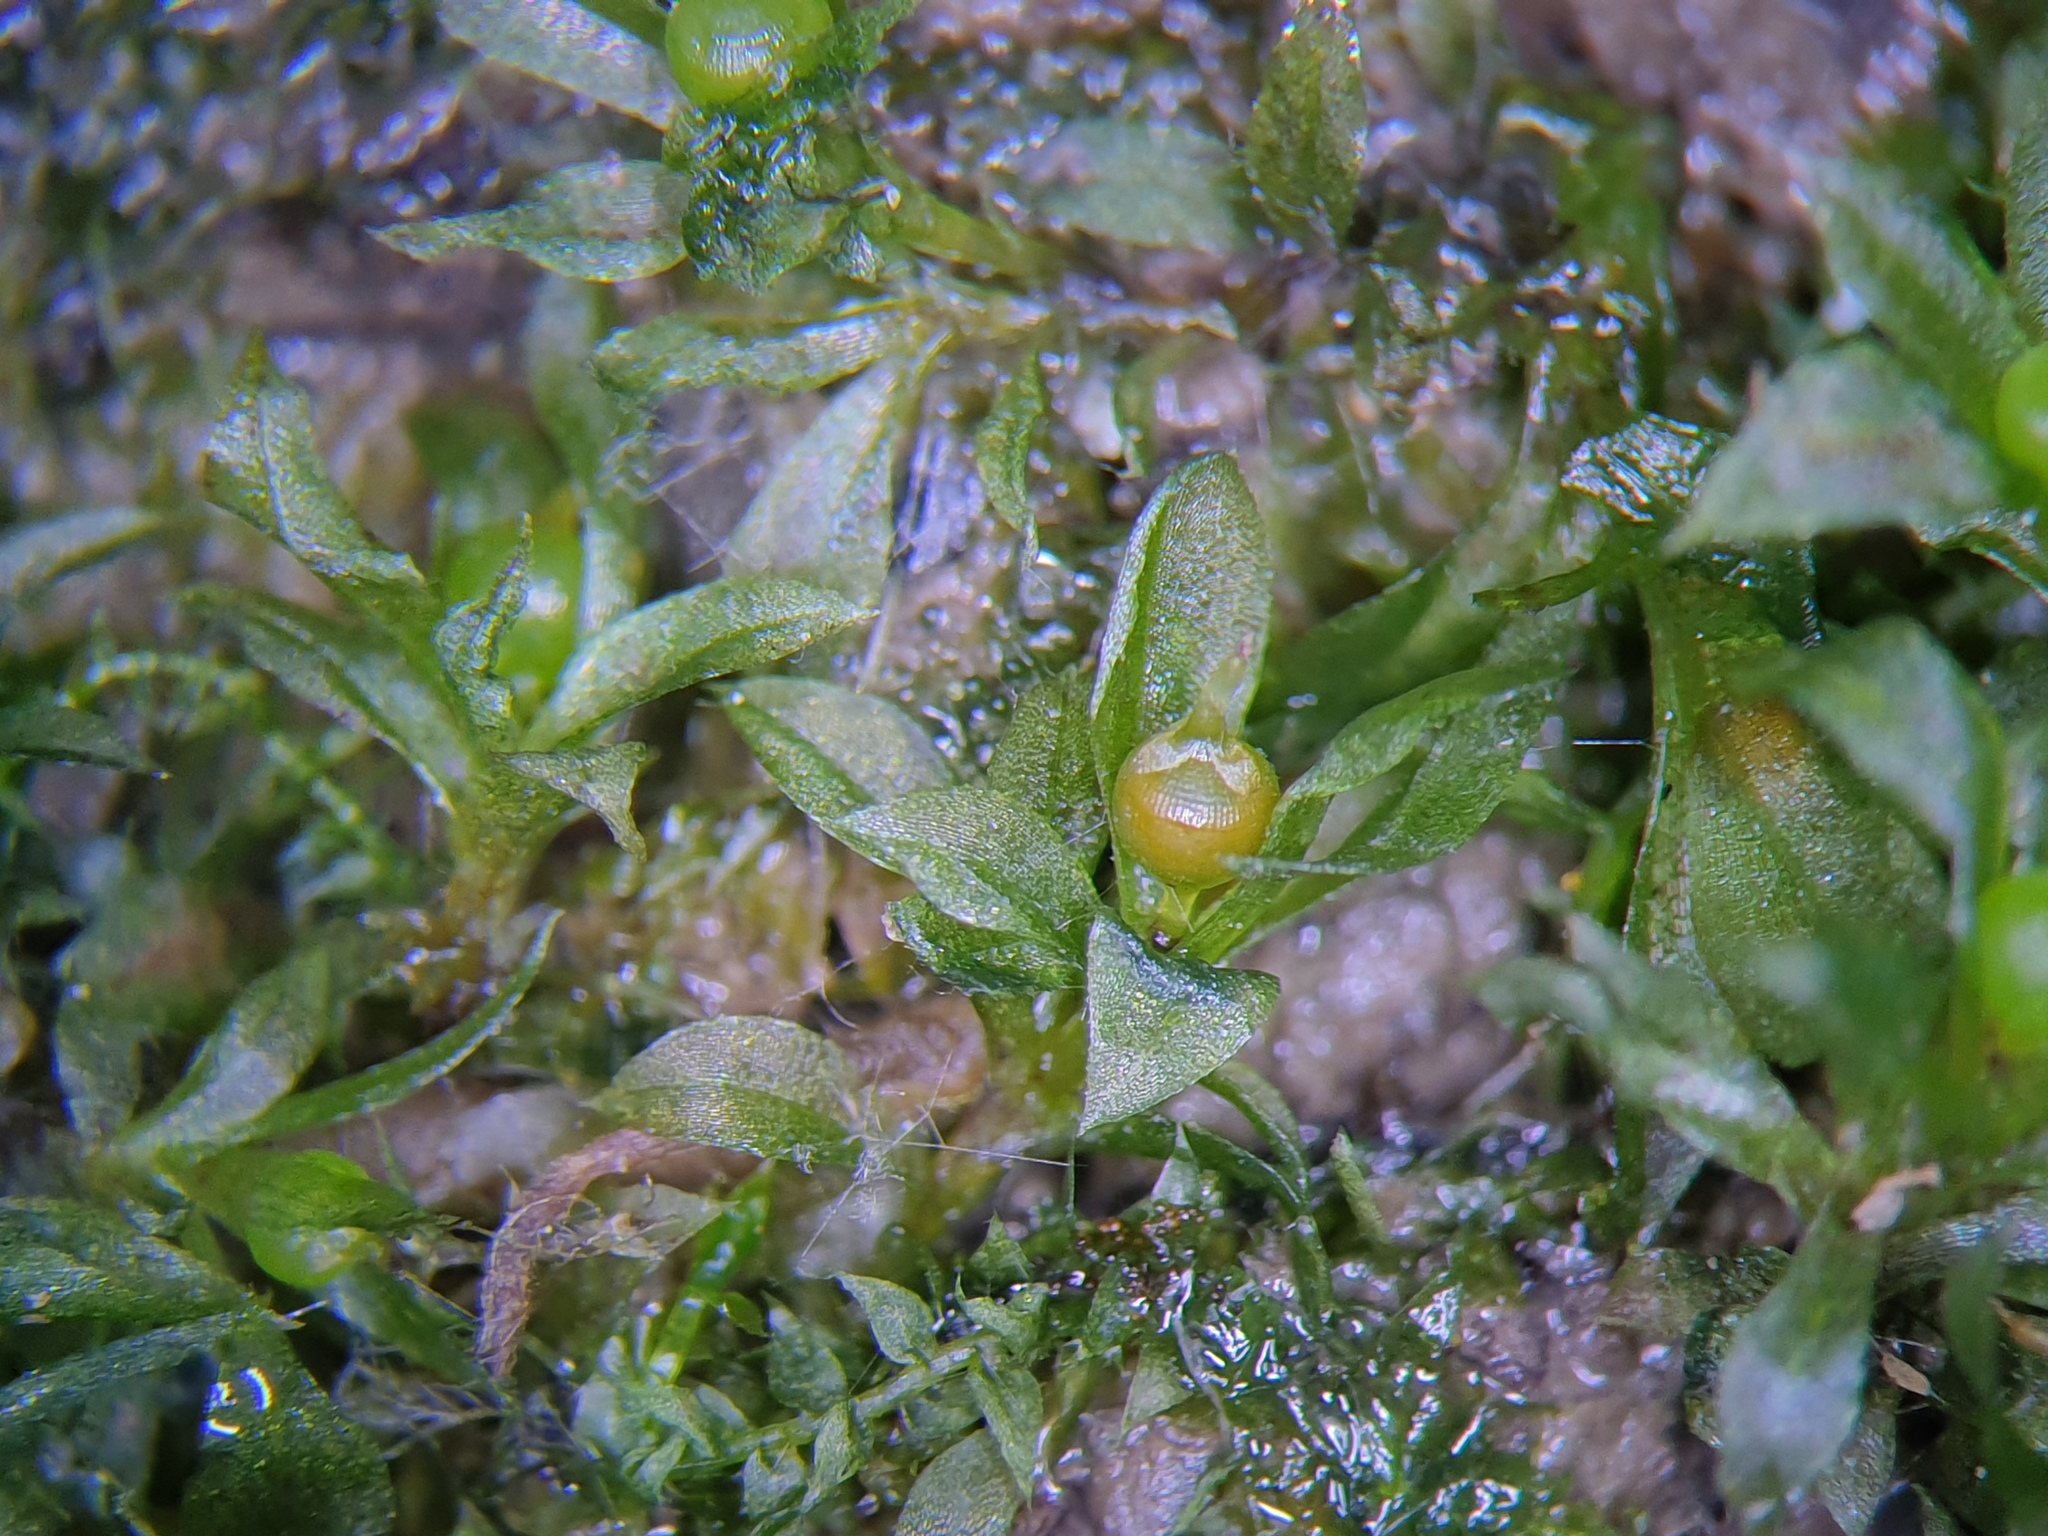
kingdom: Plantae
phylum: Bryophyta
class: Bryopsida
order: Funariales
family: Funariaceae
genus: Physcomitrium
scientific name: Physcomitrium immersum
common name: Hidden urn moss
